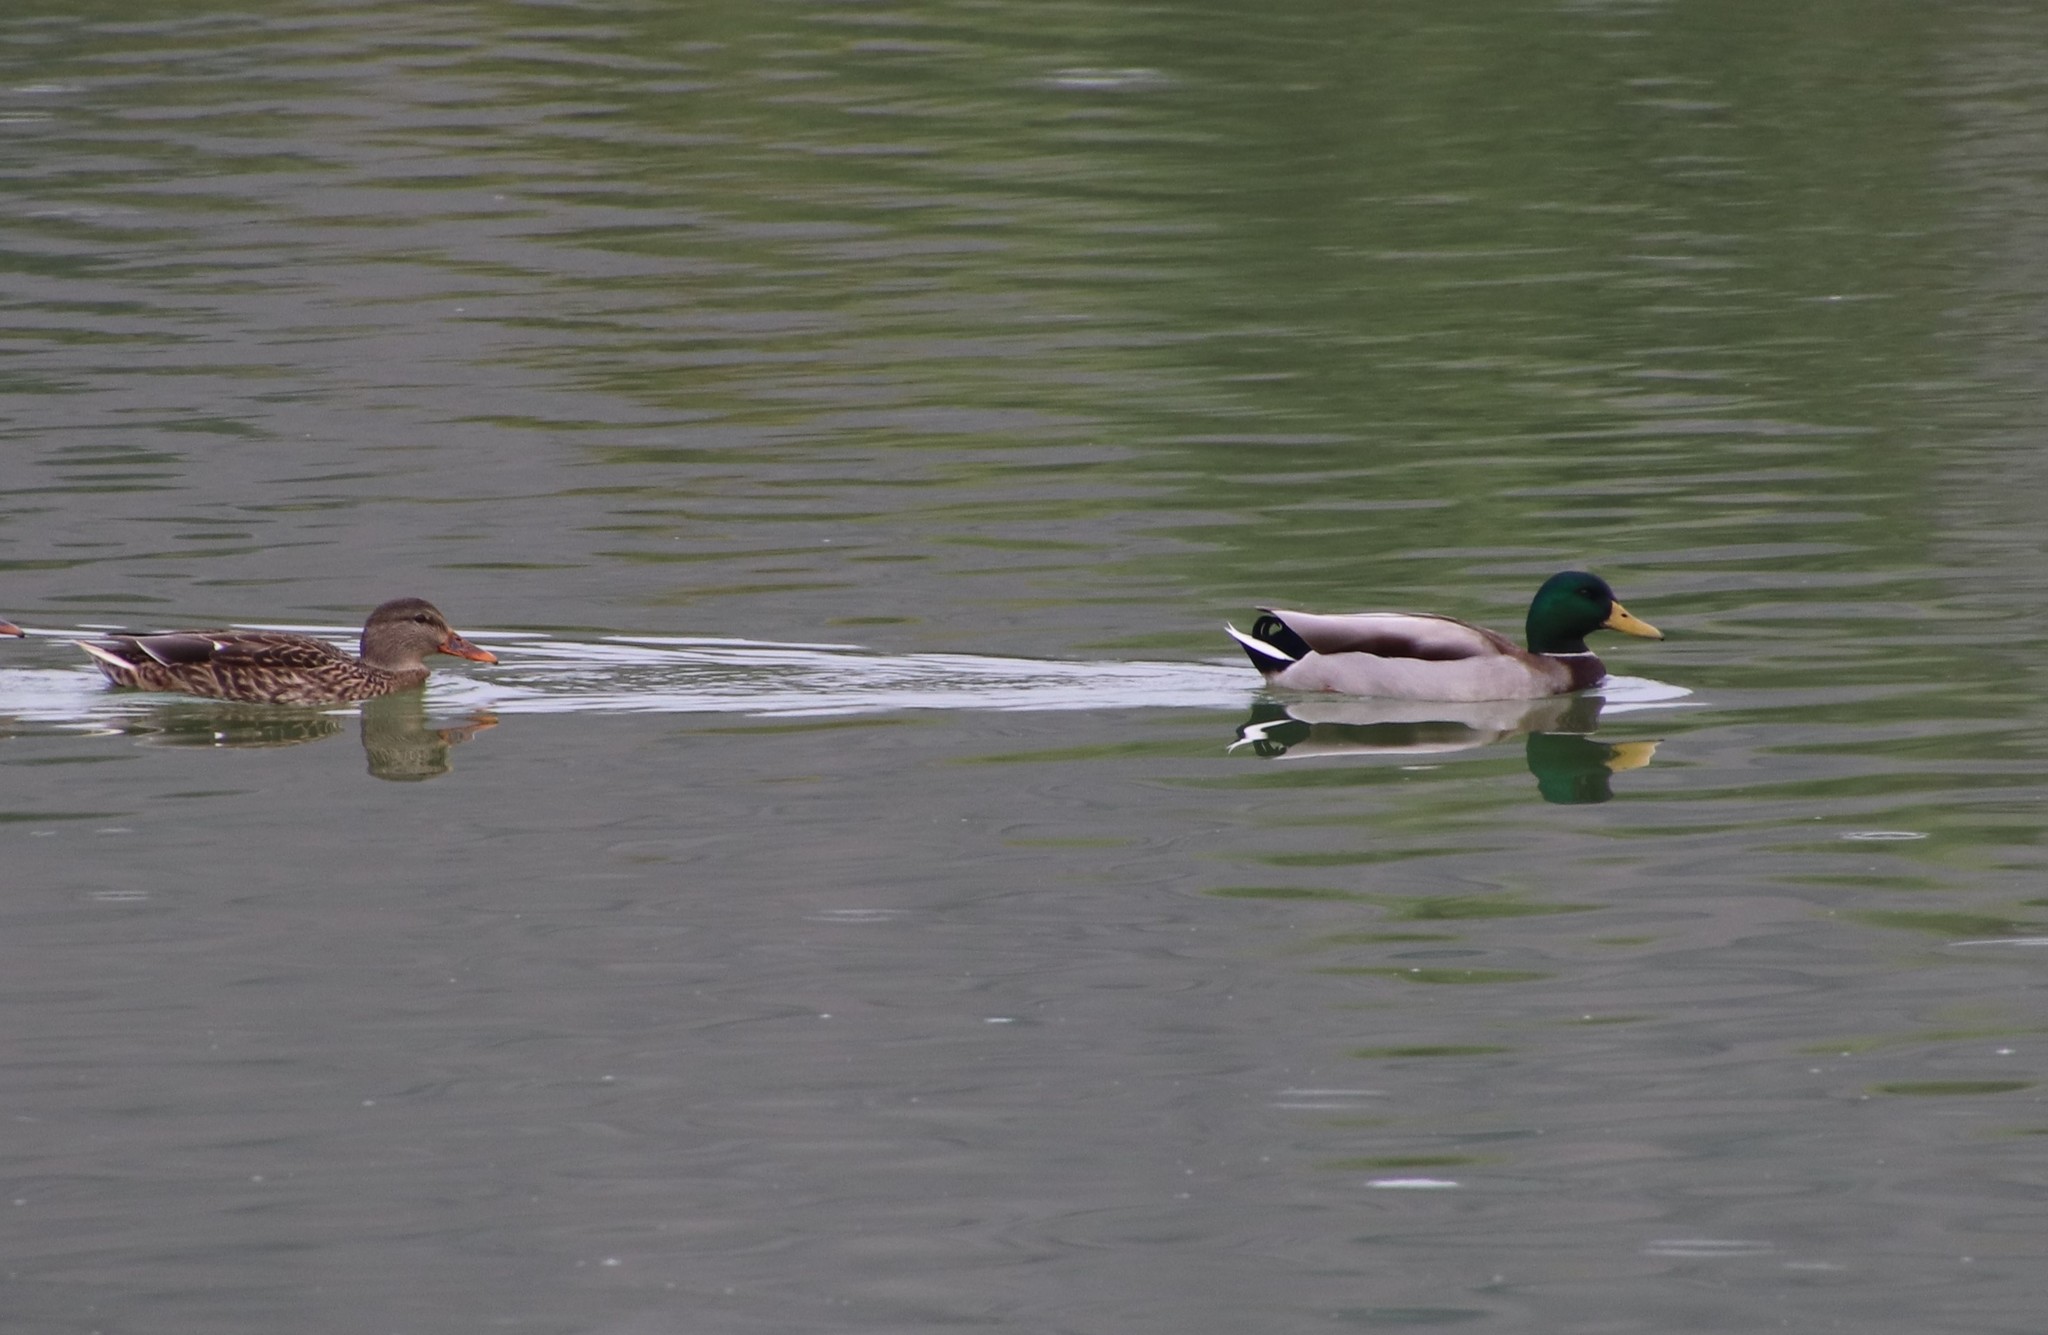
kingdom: Animalia
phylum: Chordata
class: Aves
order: Anseriformes
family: Anatidae
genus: Anas
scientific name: Anas platyrhynchos
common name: Mallard
